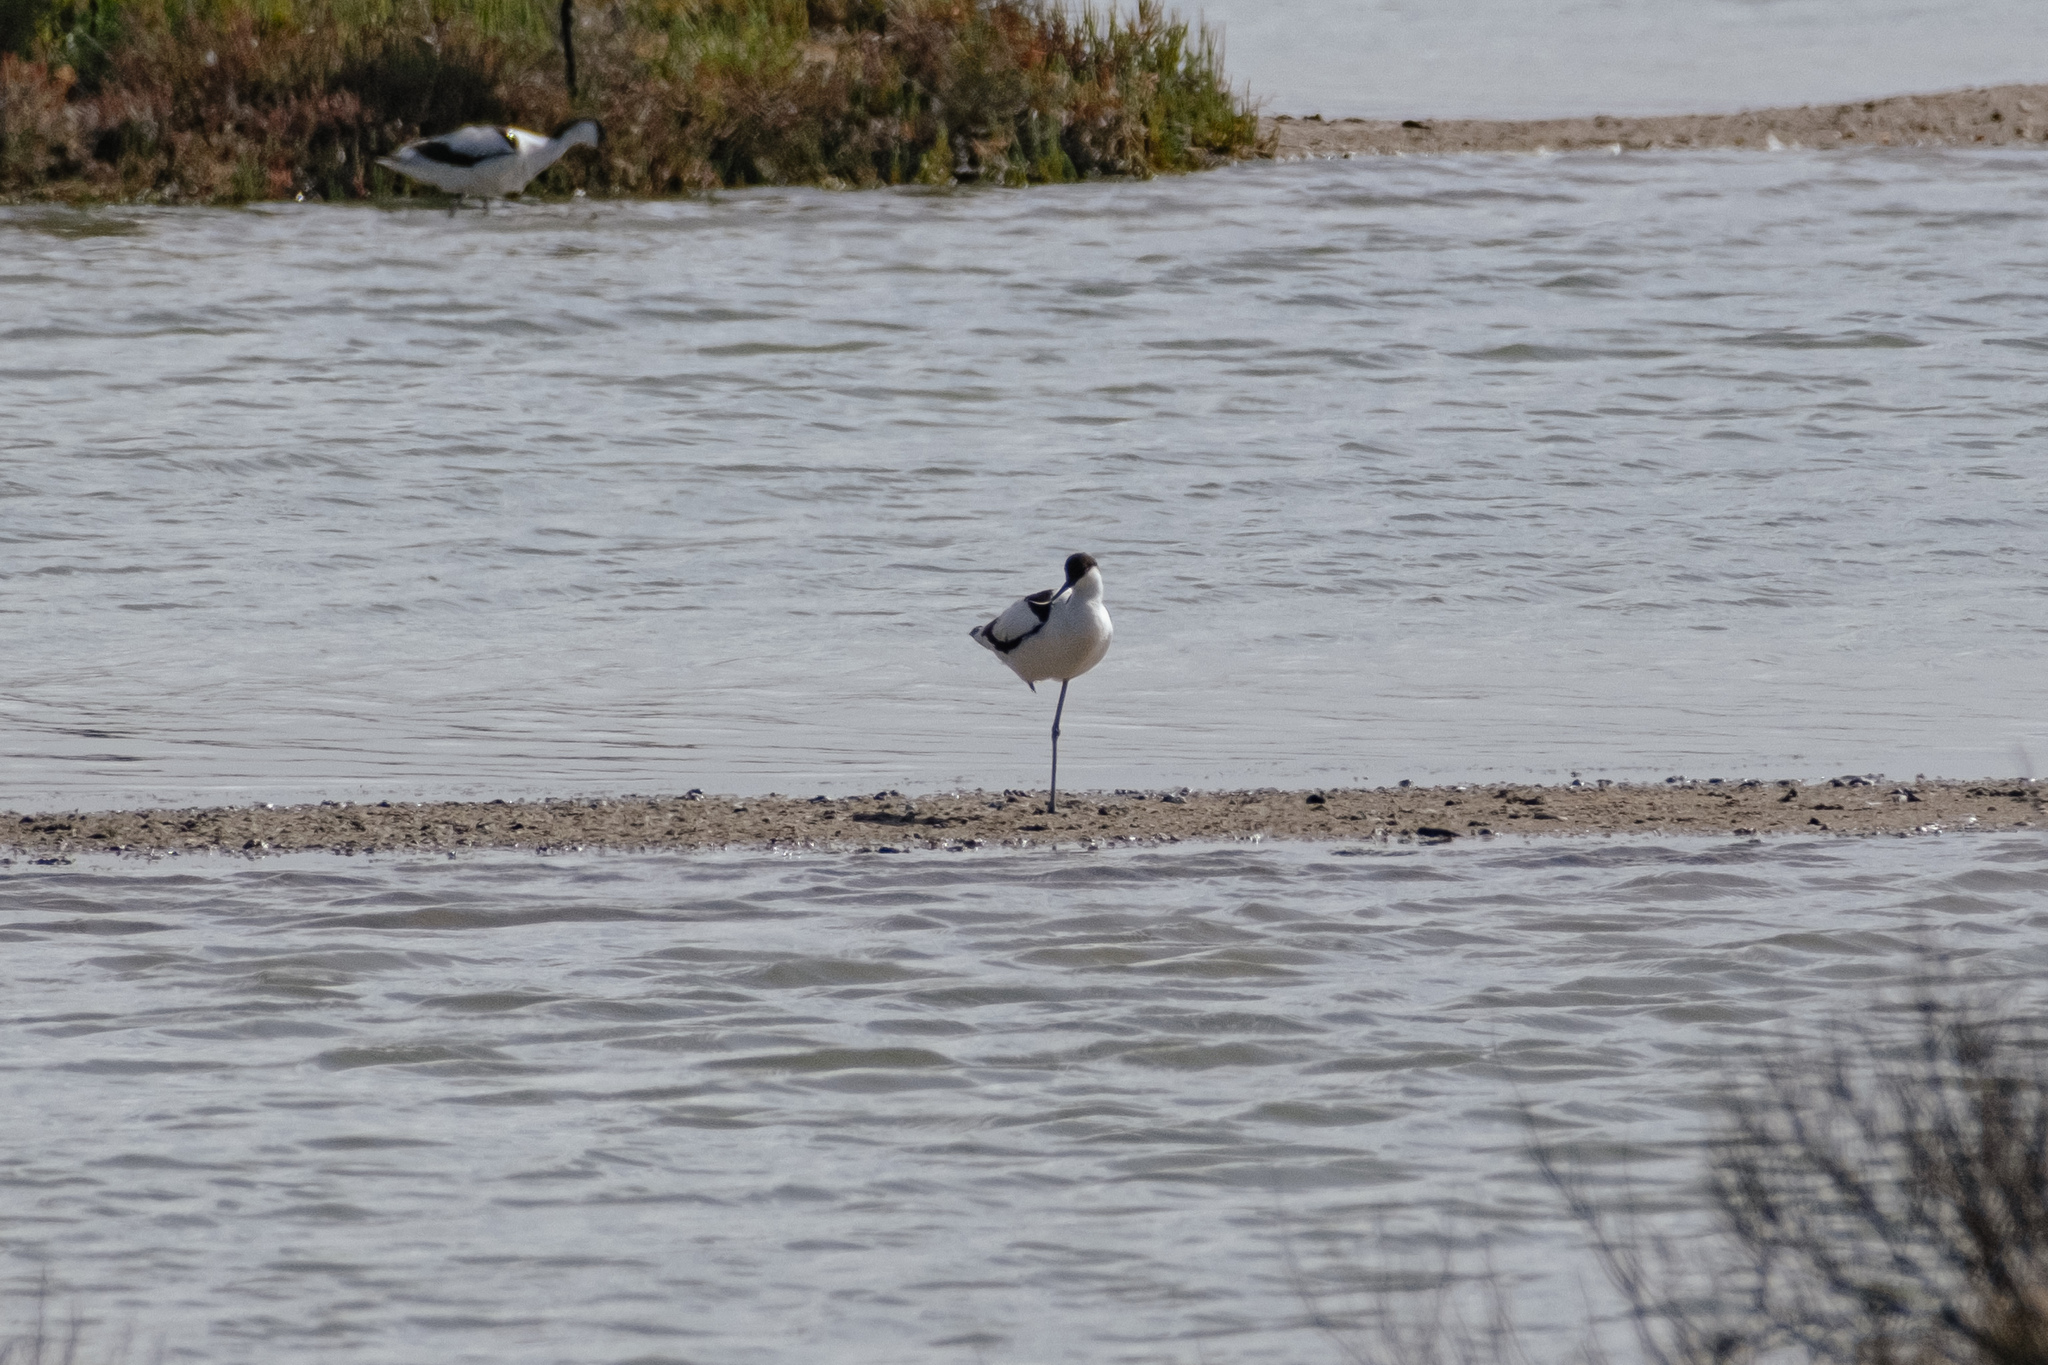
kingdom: Animalia
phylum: Chordata
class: Aves
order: Charadriiformes
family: Recurvirostridae
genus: Recurvirostra
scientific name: Recurvirostra avosetta
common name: Pied avocet
